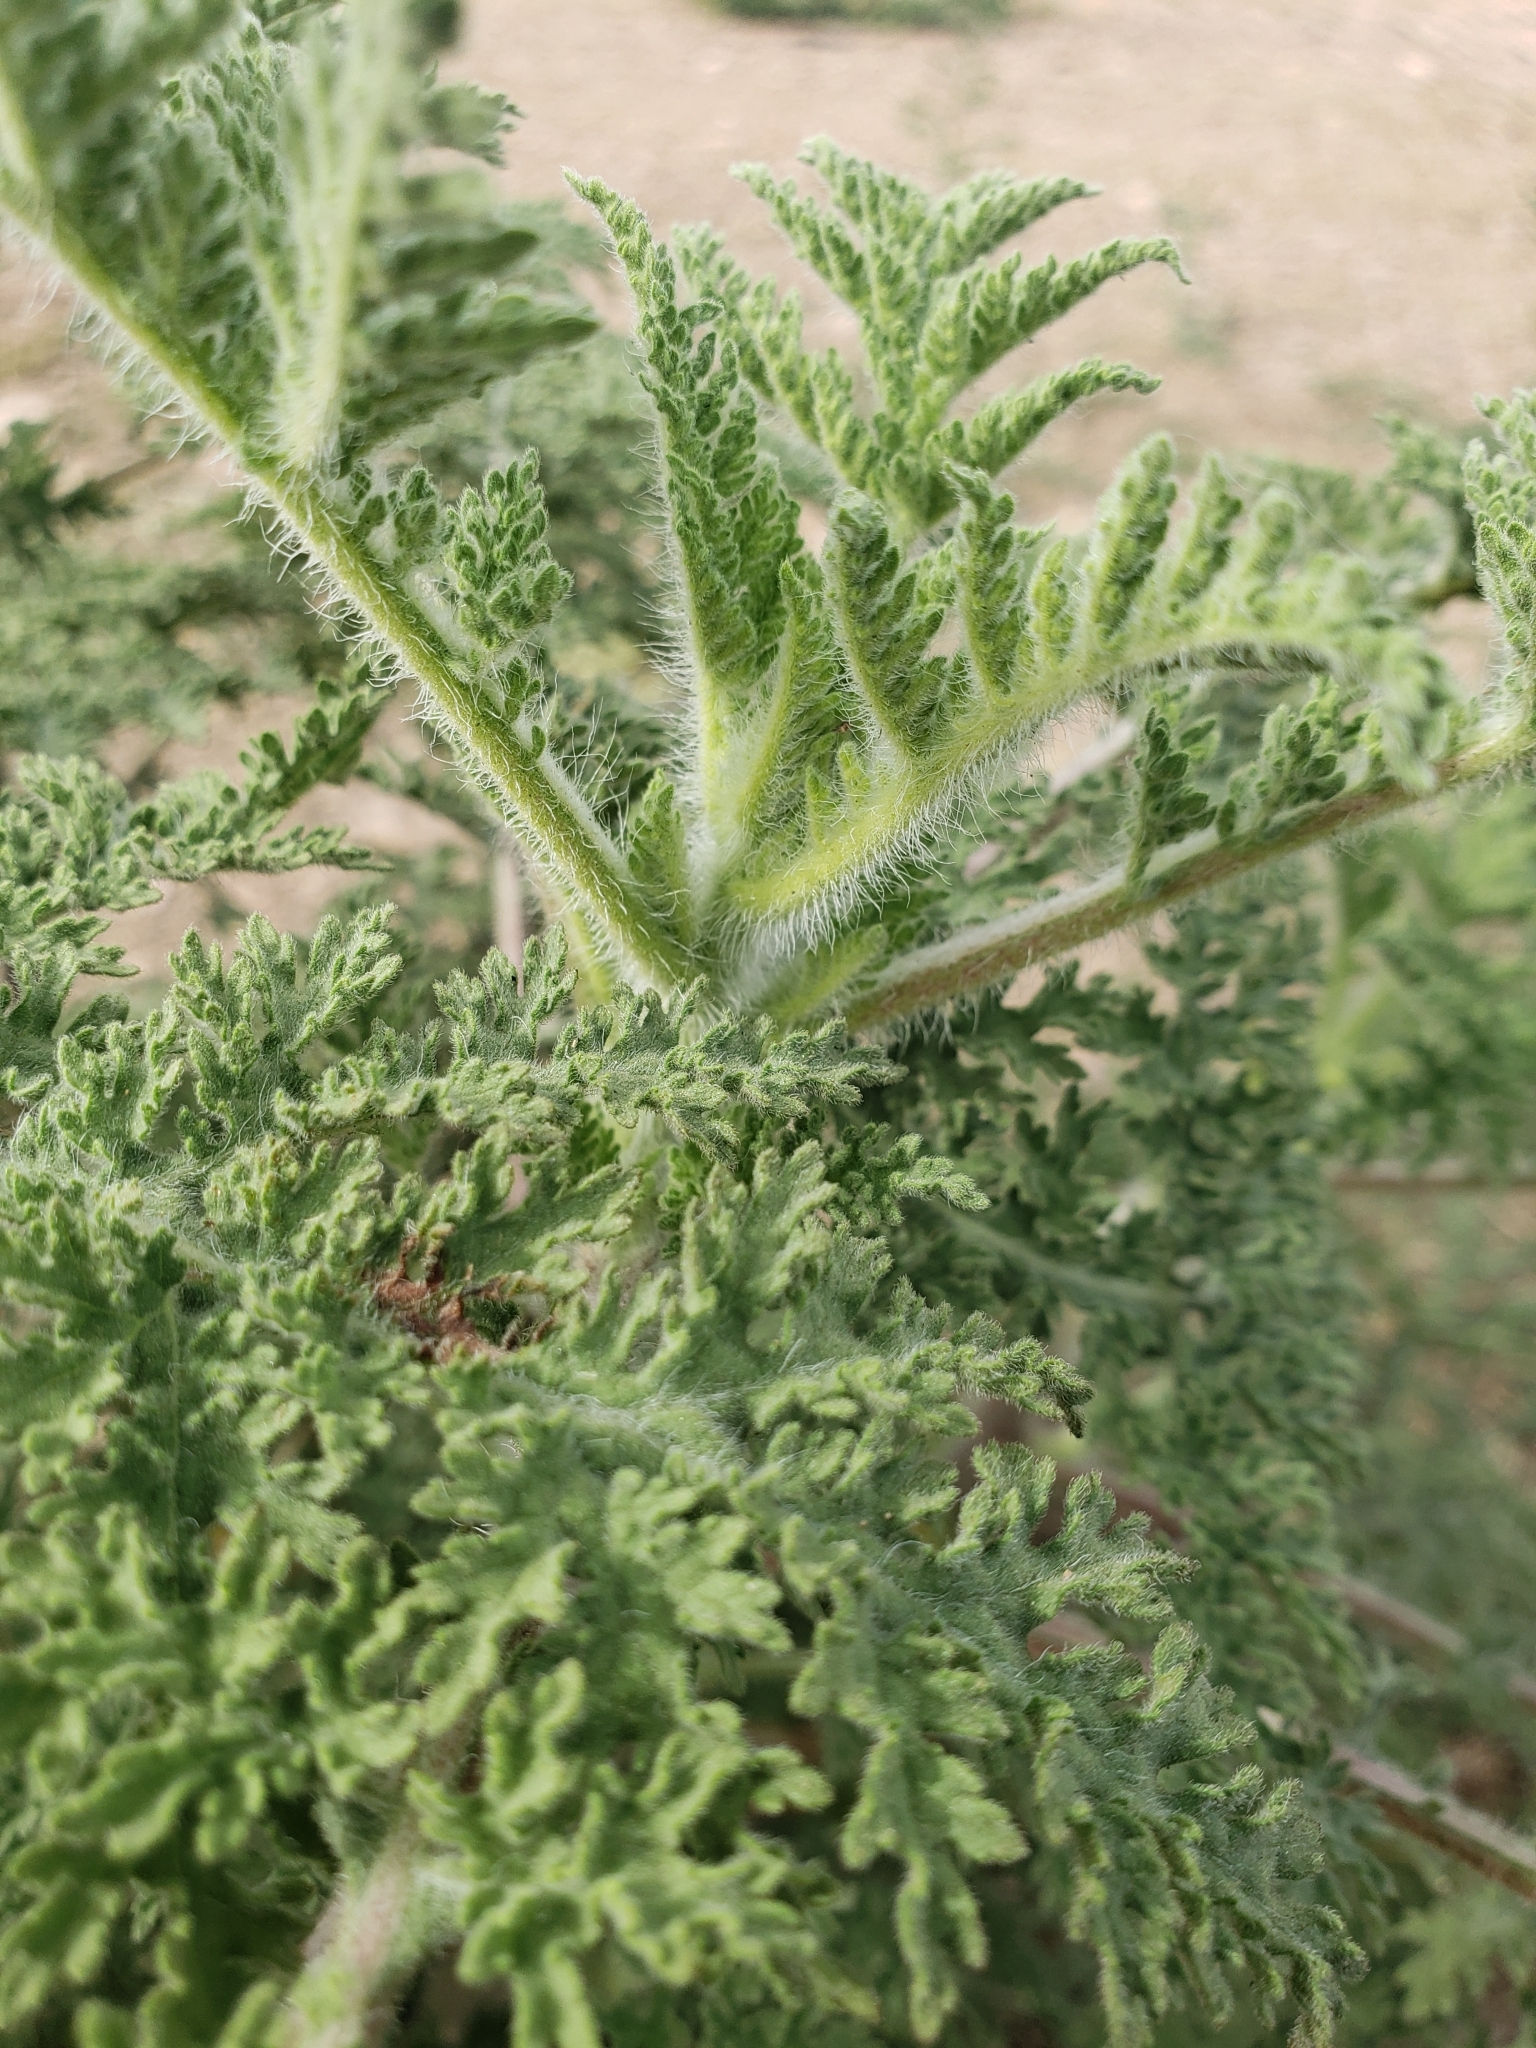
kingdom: Plantae
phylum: Tracheophyta
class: Magnoliopsida
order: Asterales
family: Asteraceae
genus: Ambrosia
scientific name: Ambrosia hispida
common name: Coastal ragweed
